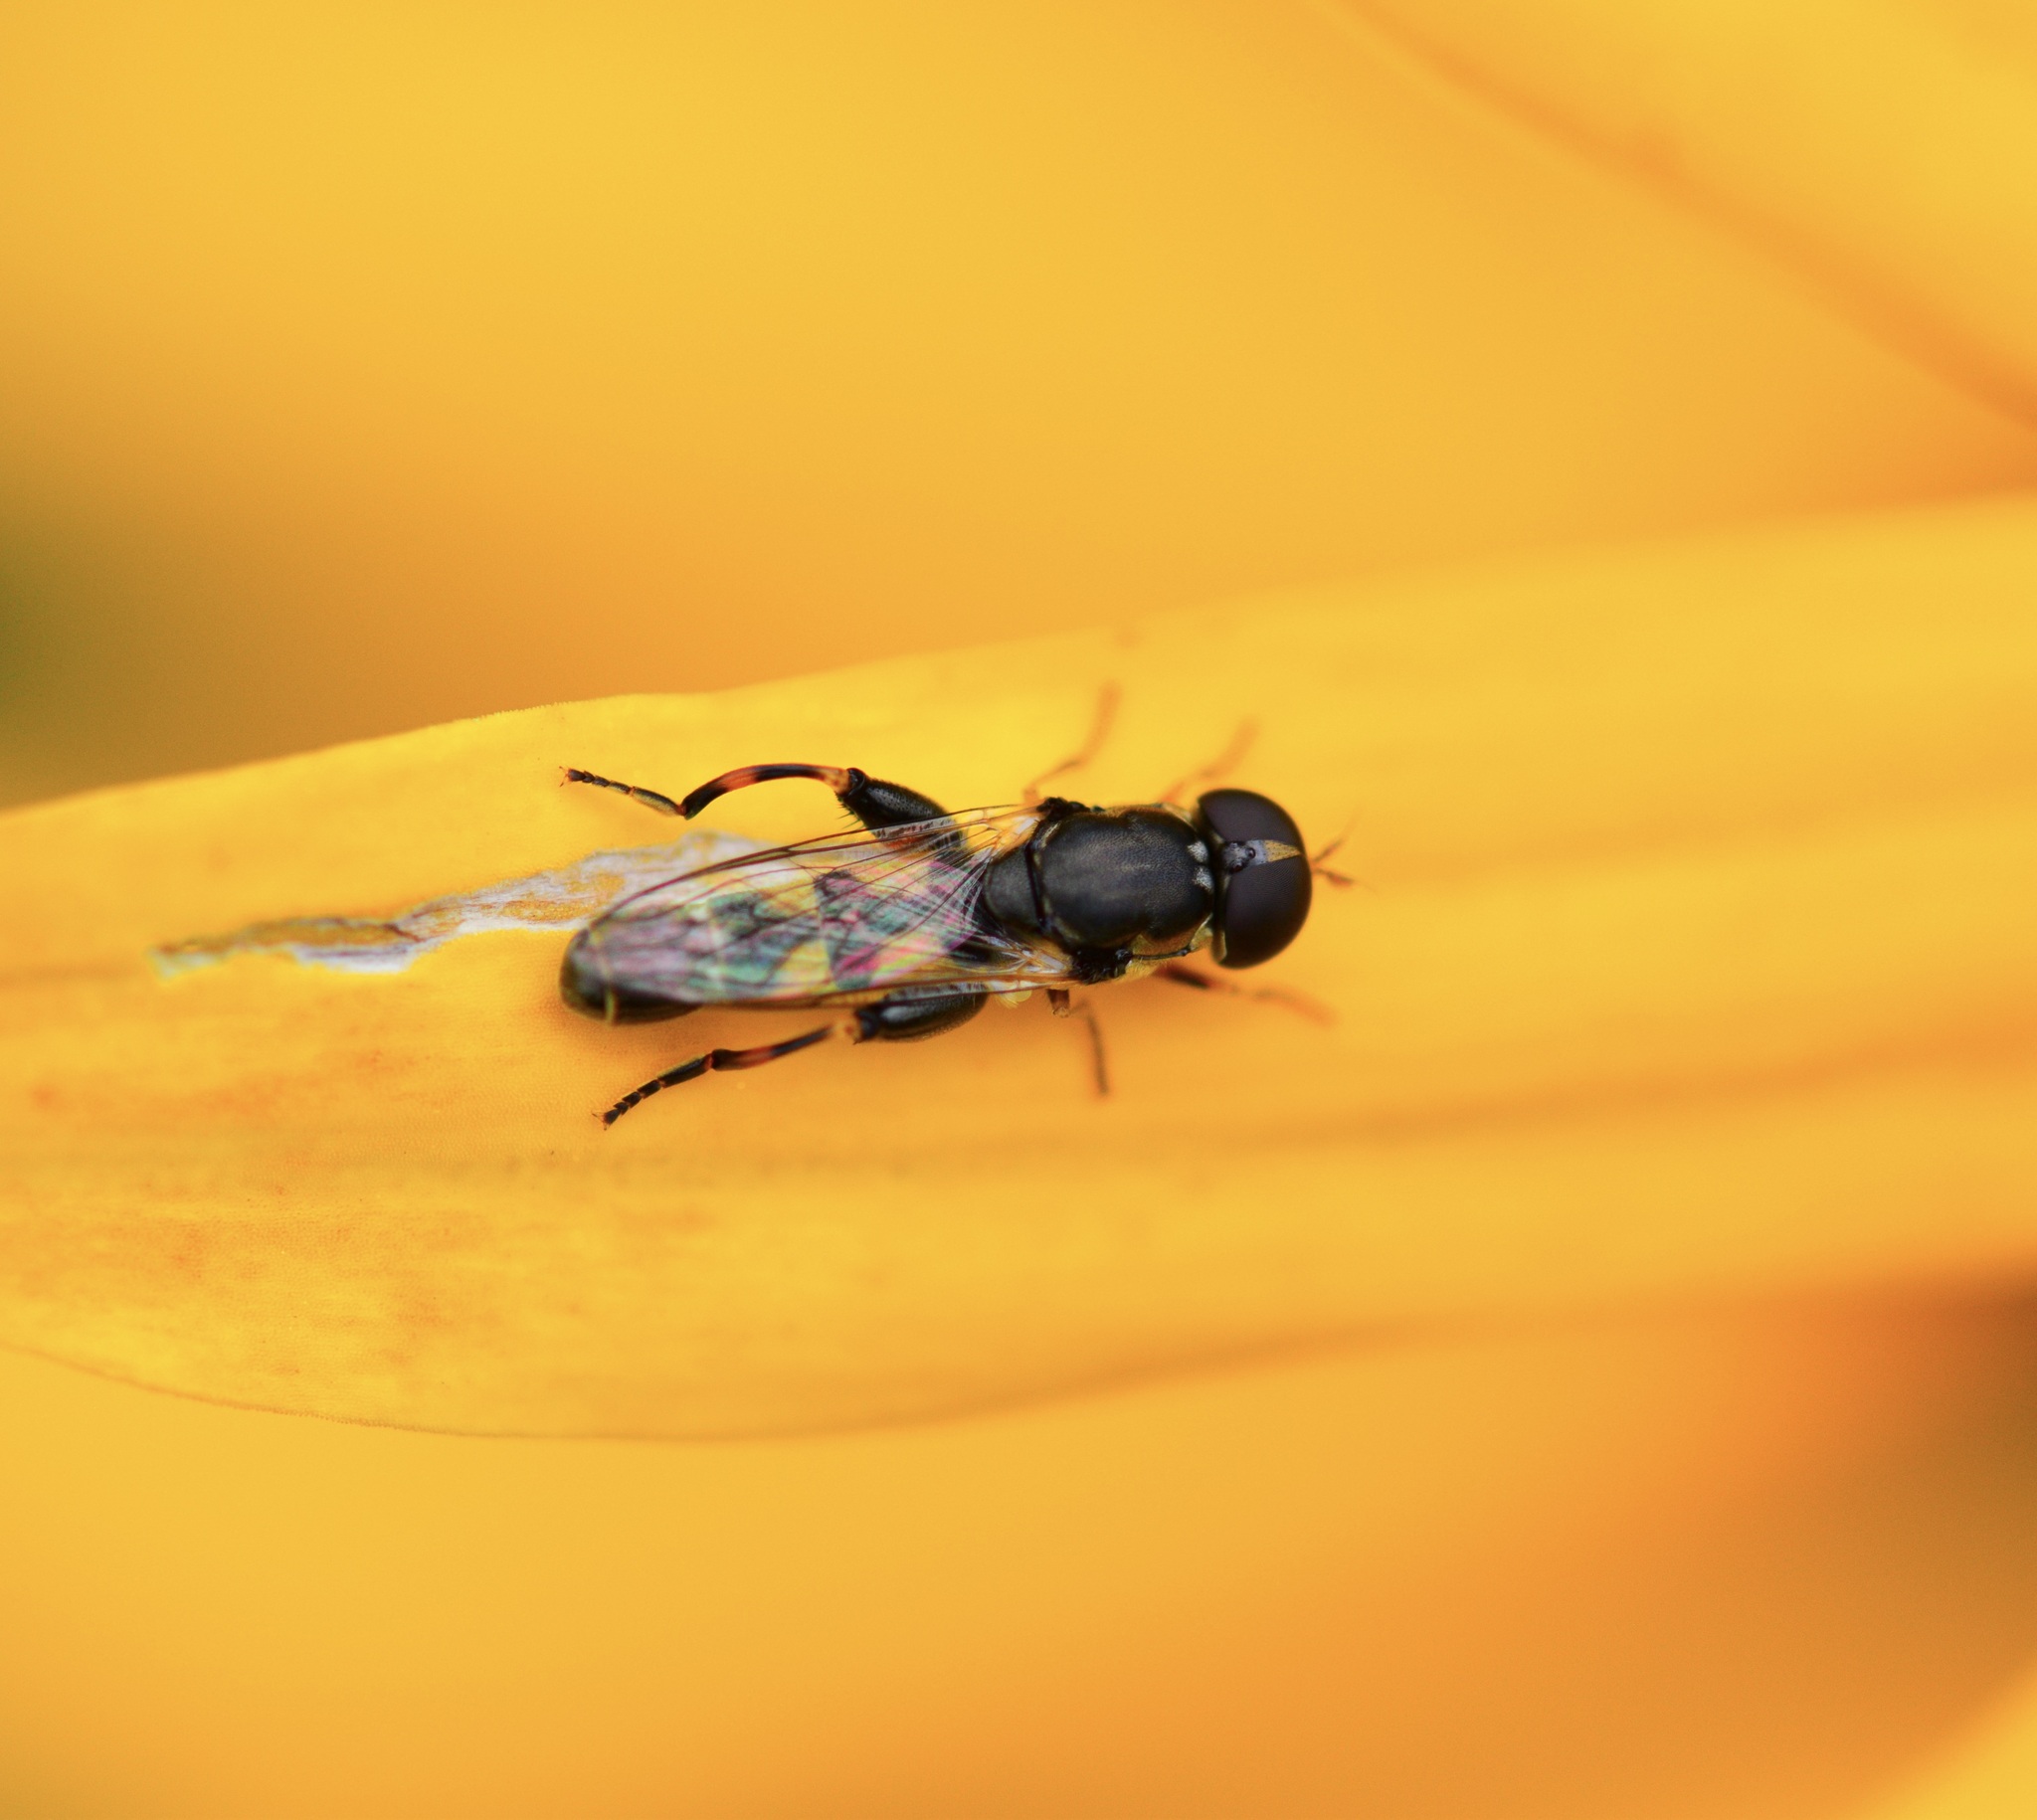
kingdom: Animalia
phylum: Arthropoda
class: Insecta
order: Diptera
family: Syrphidae
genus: Syritta
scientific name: Syritta pipiens
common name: Hover fly
